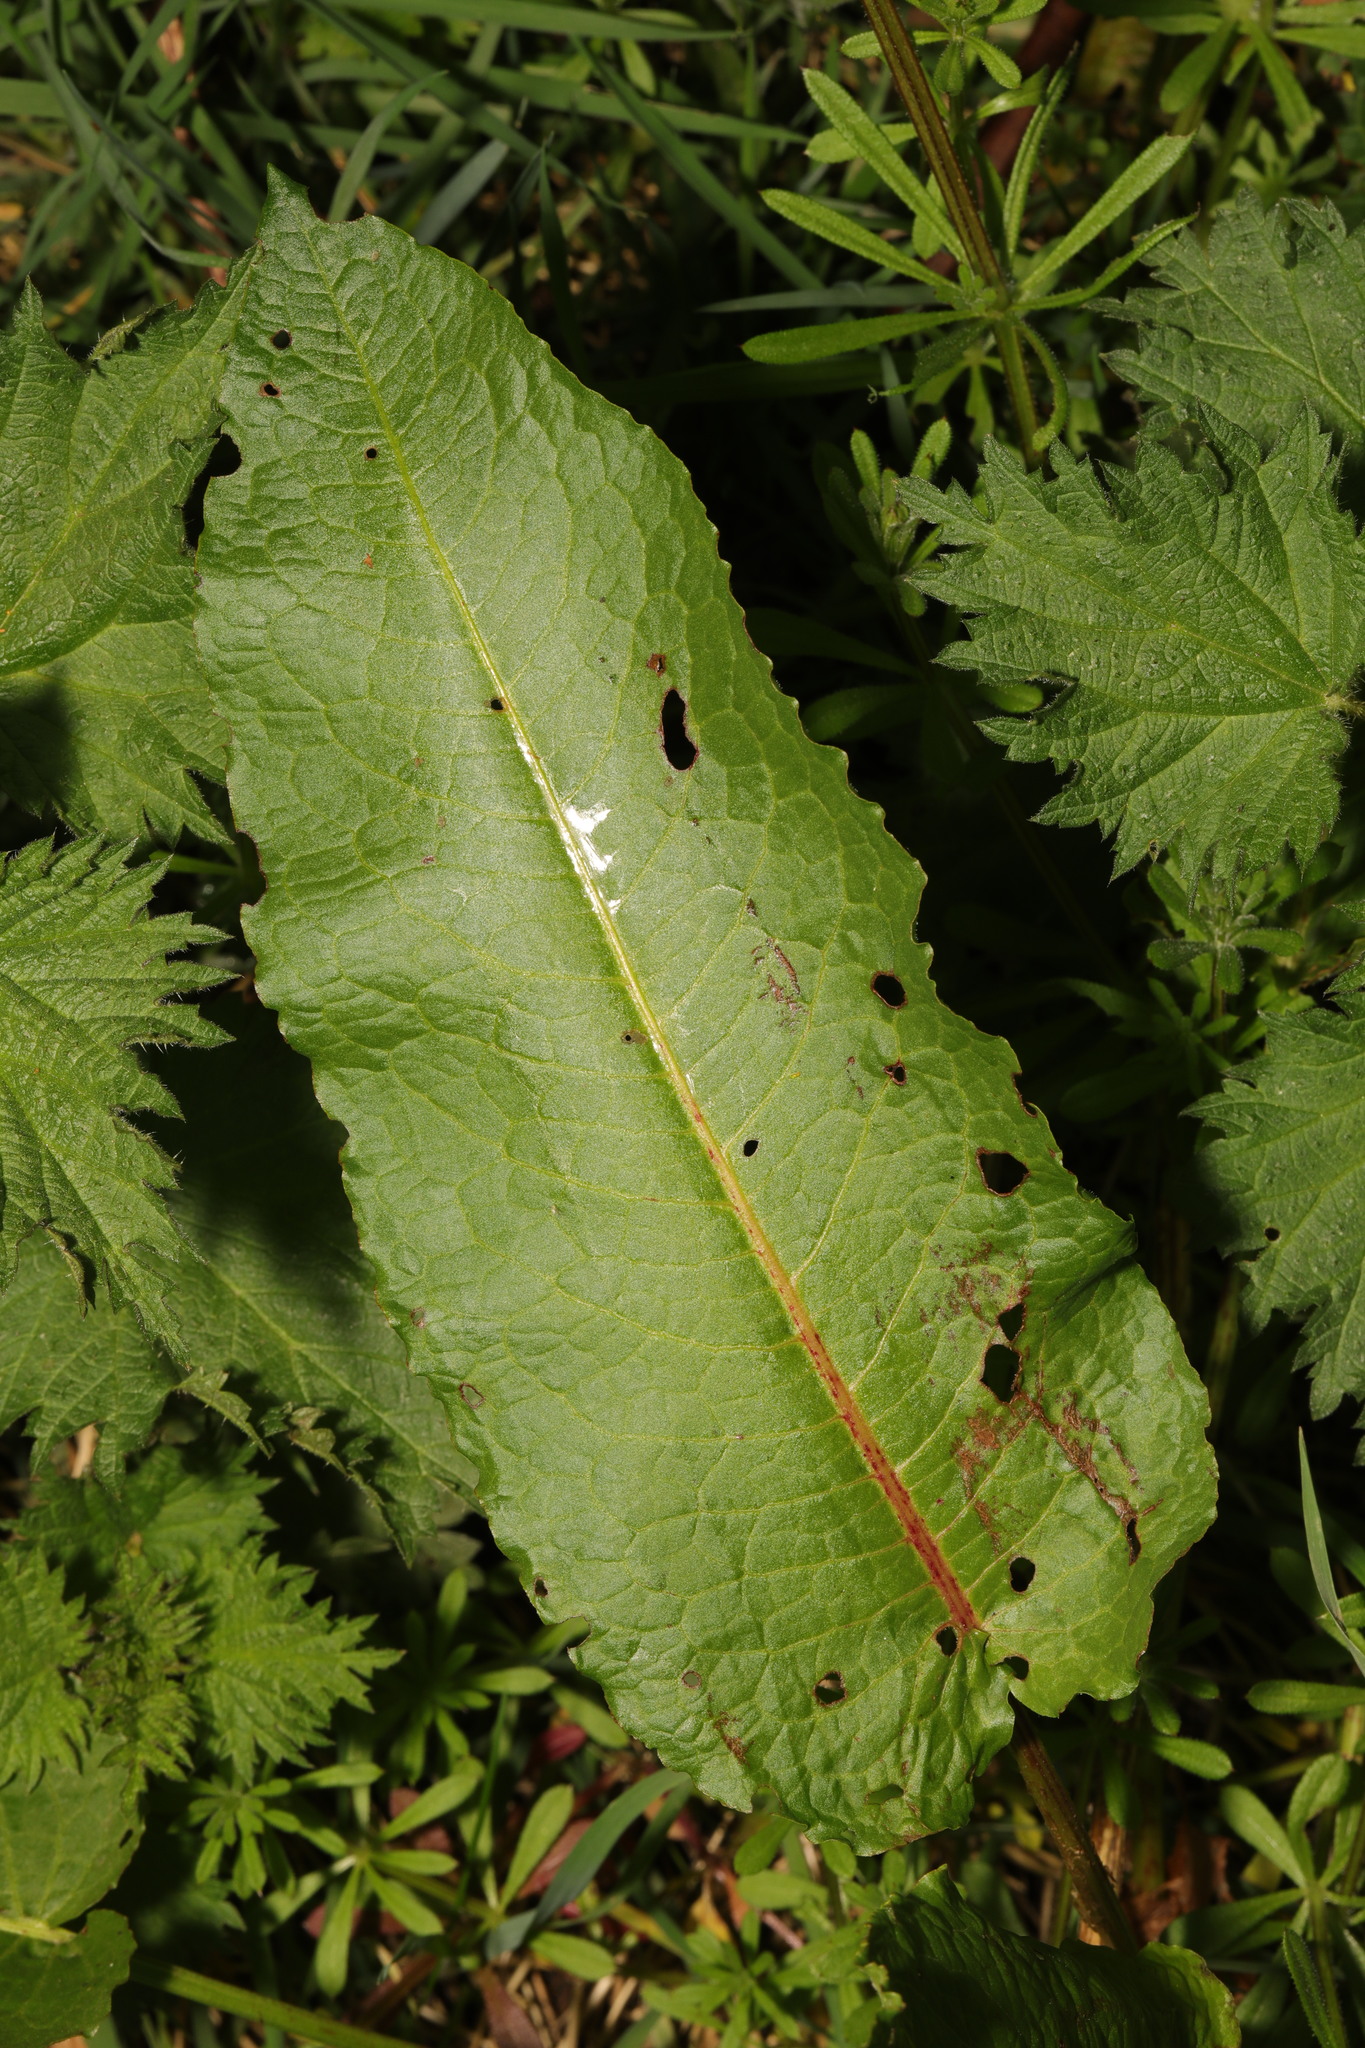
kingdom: Plantae
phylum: Tracheophyta
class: Magnoliopsida
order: Caryophyllales
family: Polygonaceae
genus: Rumex
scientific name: Rumex obtusifolius
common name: Bitter dock
